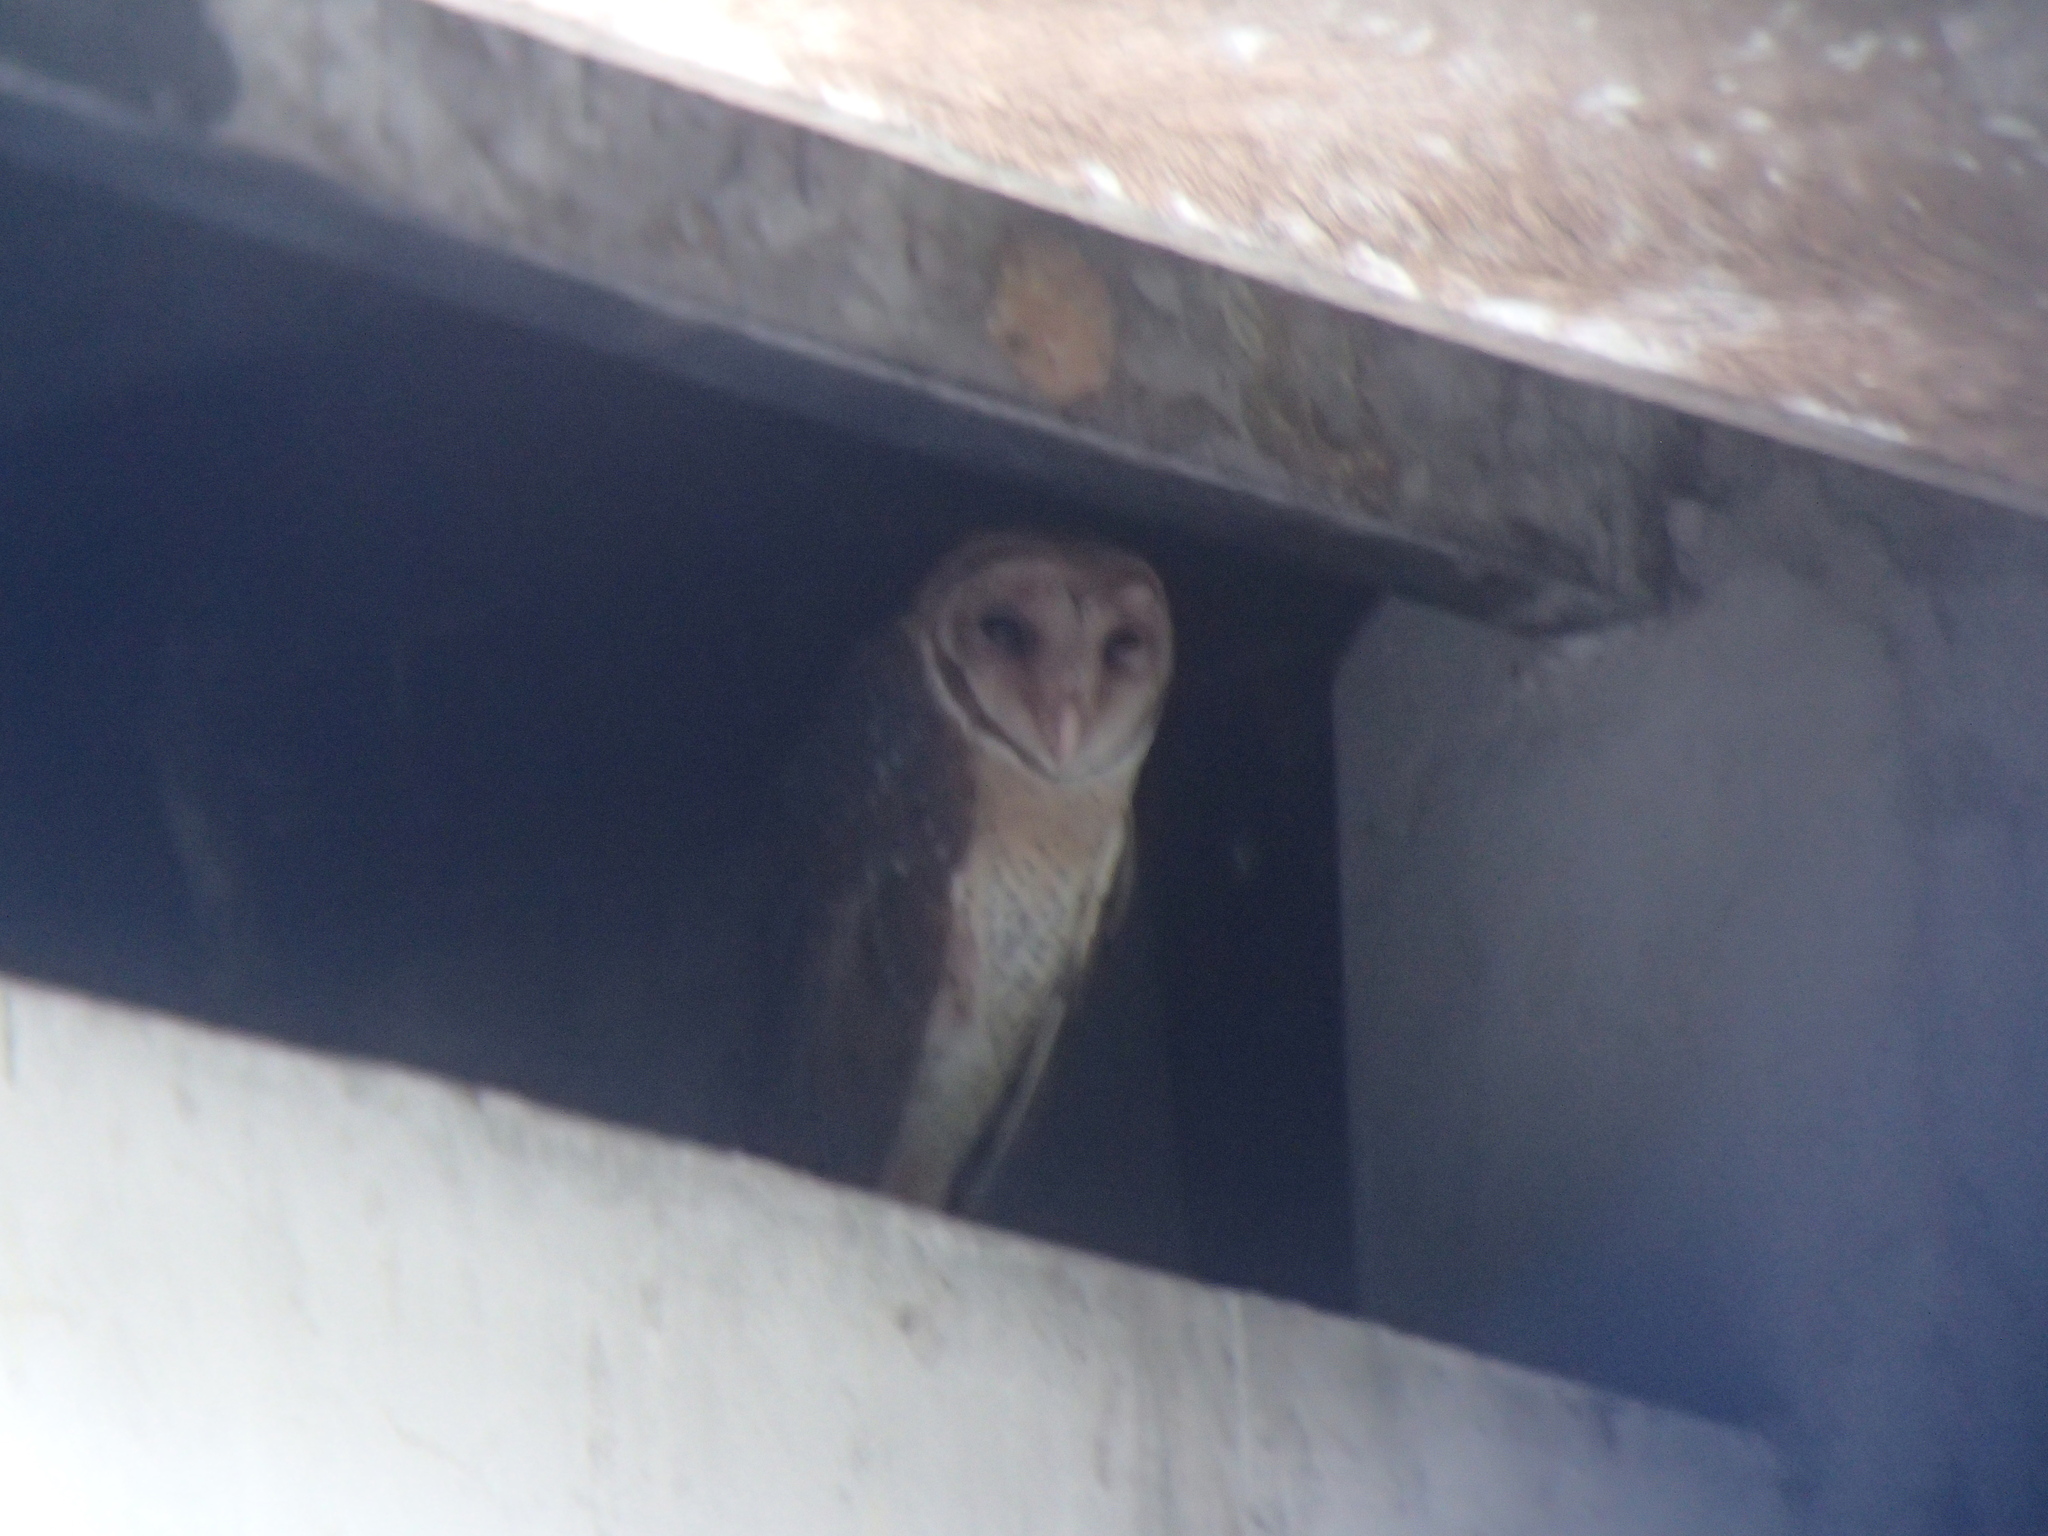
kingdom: Animalia
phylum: Chordata
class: Aves
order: Strigiformes
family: Tytonidae
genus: Tyto
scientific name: Tyto deroepstorffi
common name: Andaman masked owl
